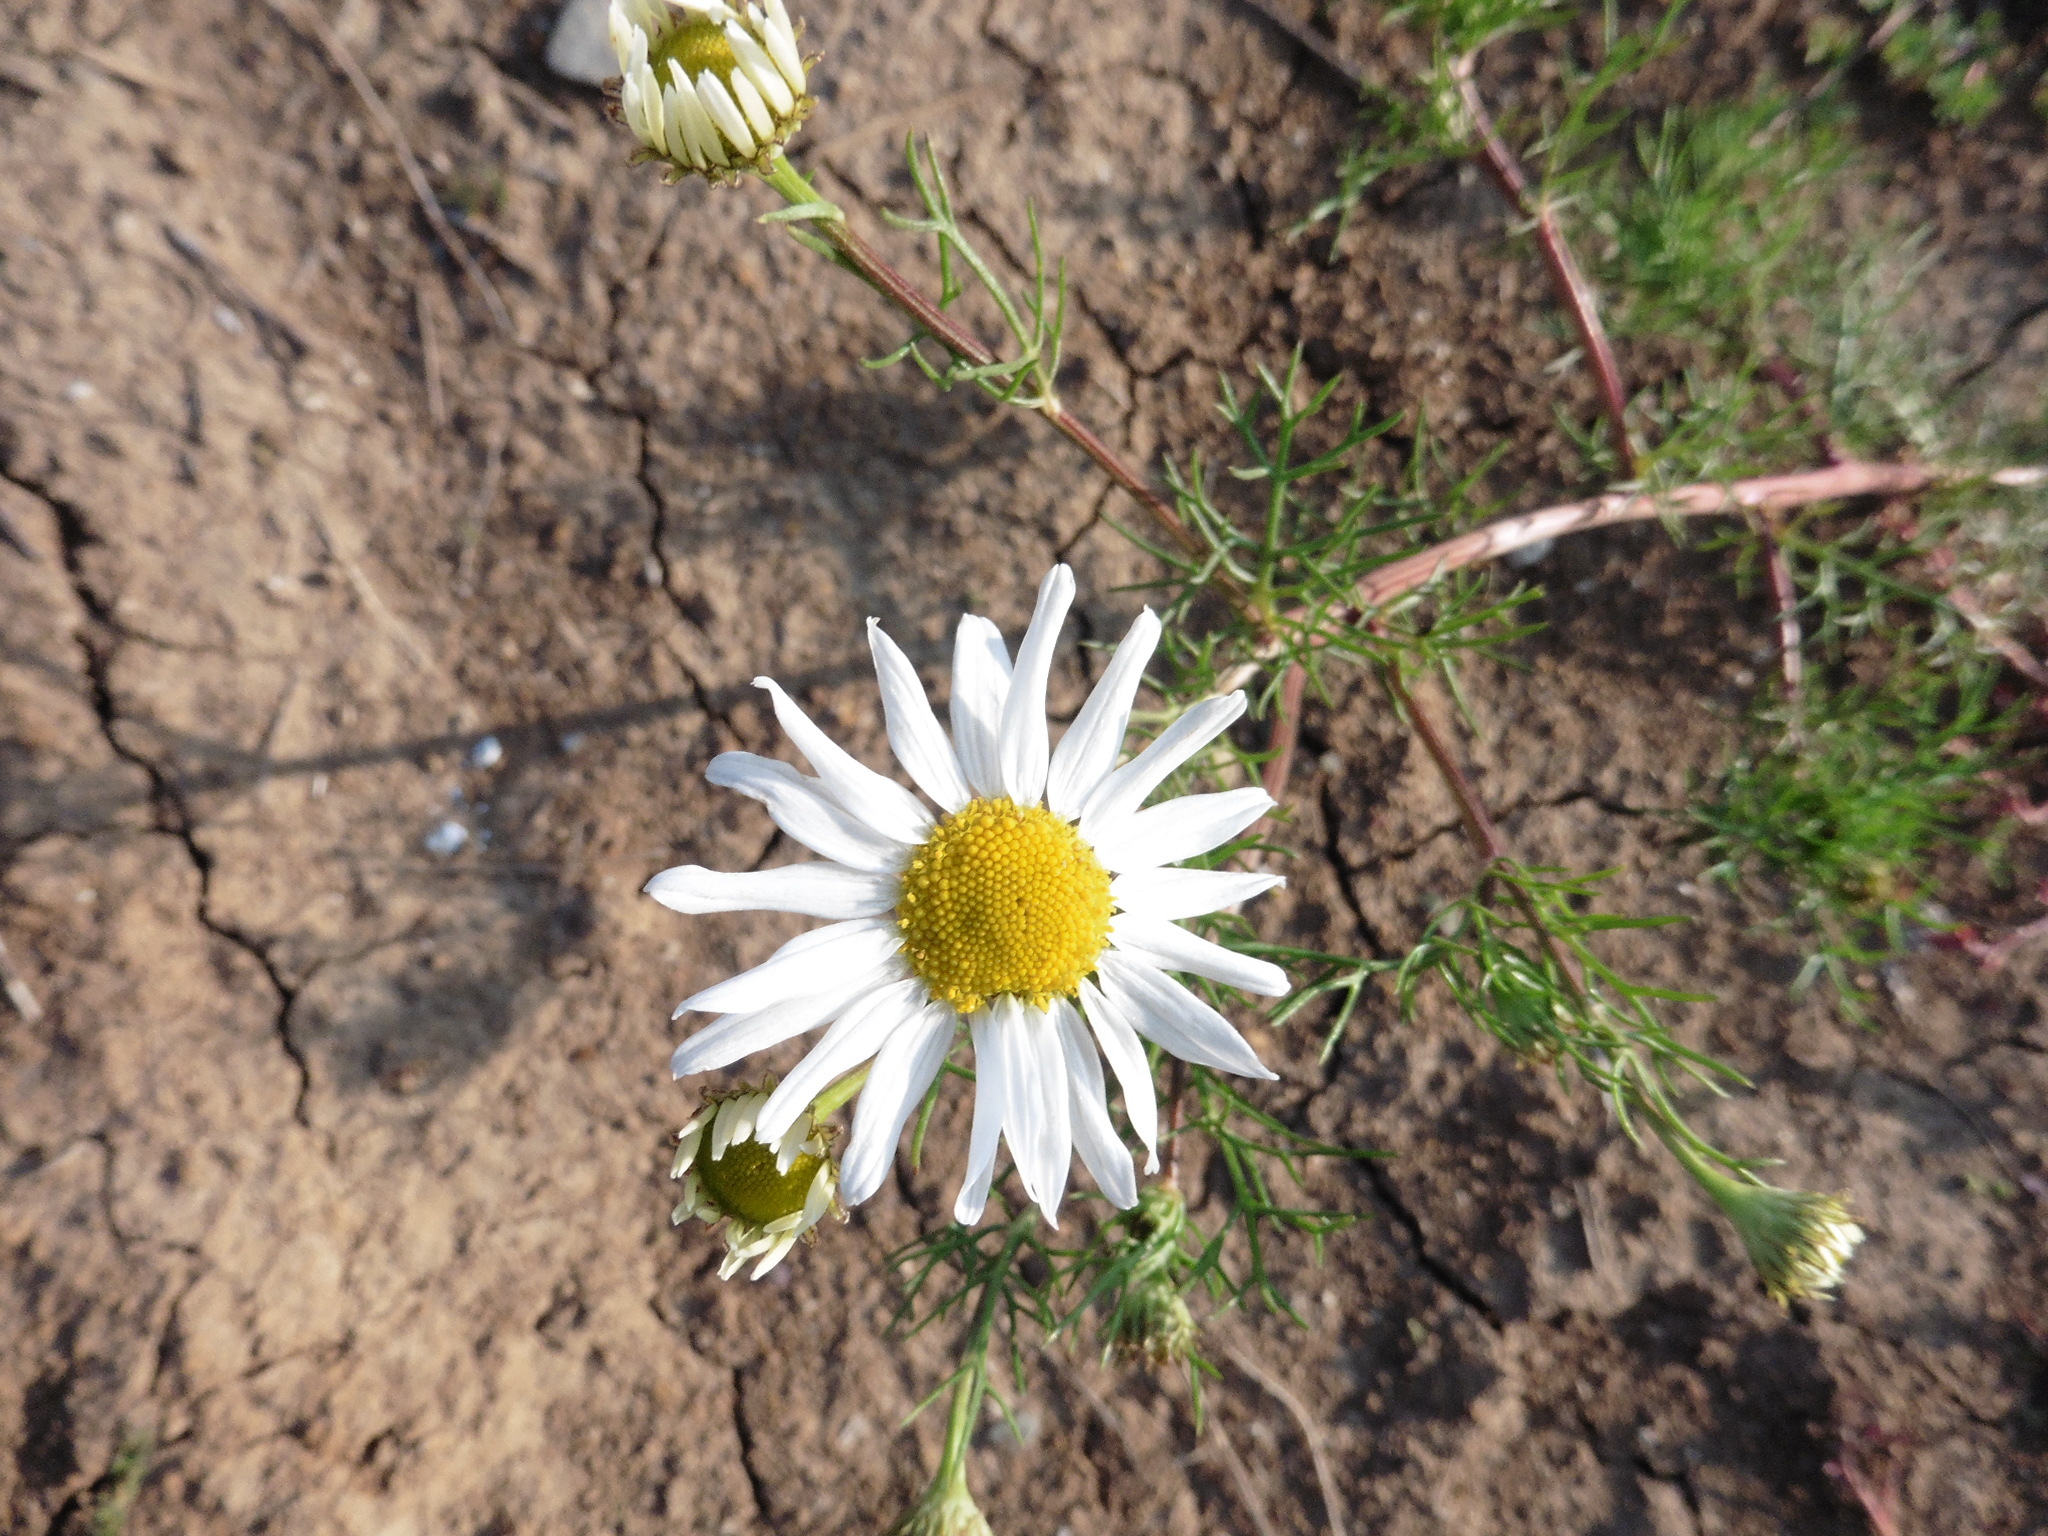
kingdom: Plantae
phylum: Tracheophyta
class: Magnoliopsida
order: Asterales
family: Asteraceae
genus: Tripleurospermum
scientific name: Tripleurospermum inodorum
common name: Scentless mayweed
